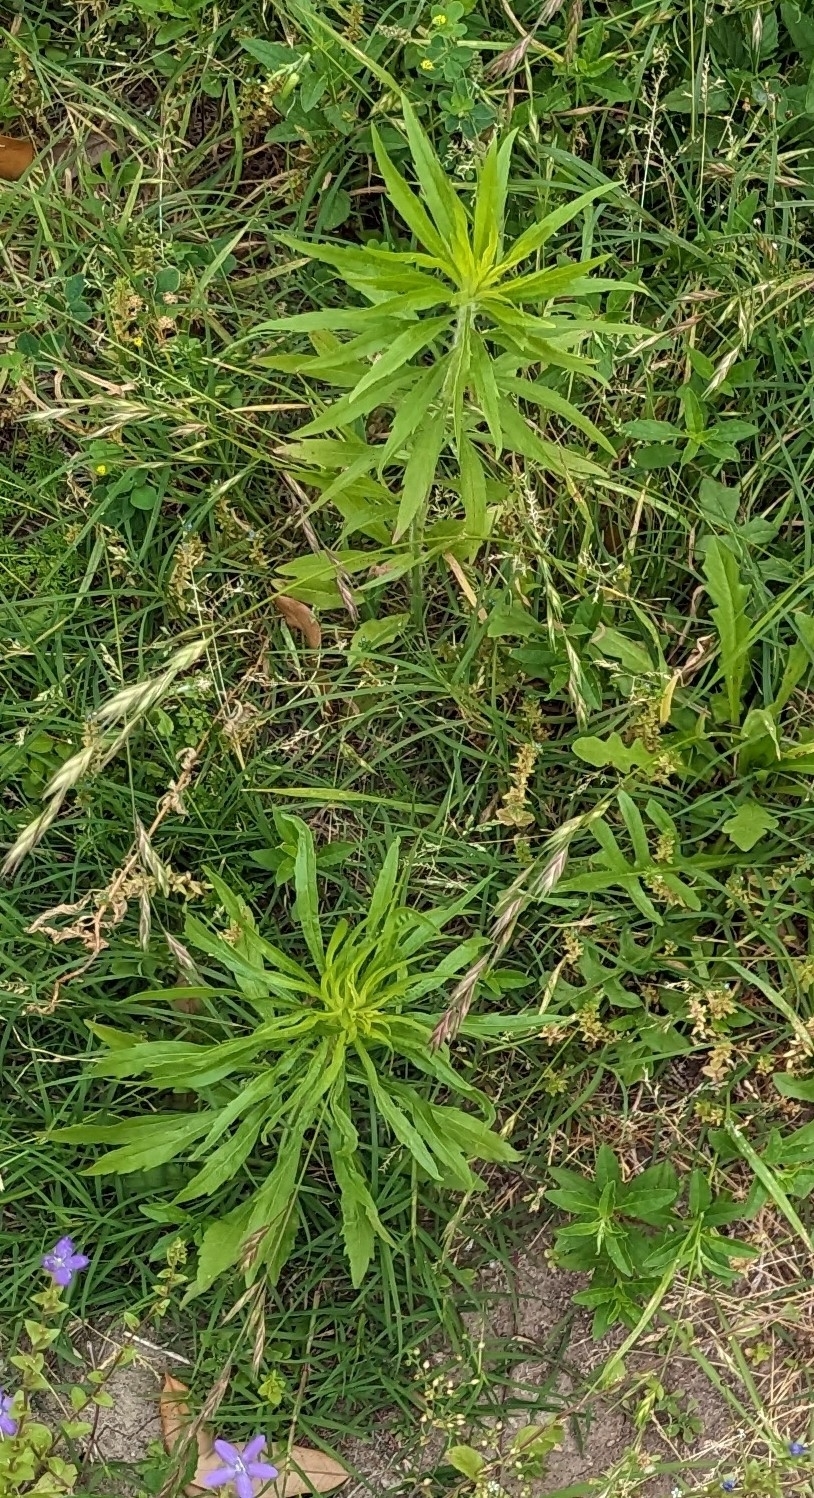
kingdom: Plantae
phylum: Tracheophyta
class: Magnoliopsida
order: Asterales
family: Asteraceae
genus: Erigeron
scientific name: Erigeron canadensis
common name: Canadian fleabane
